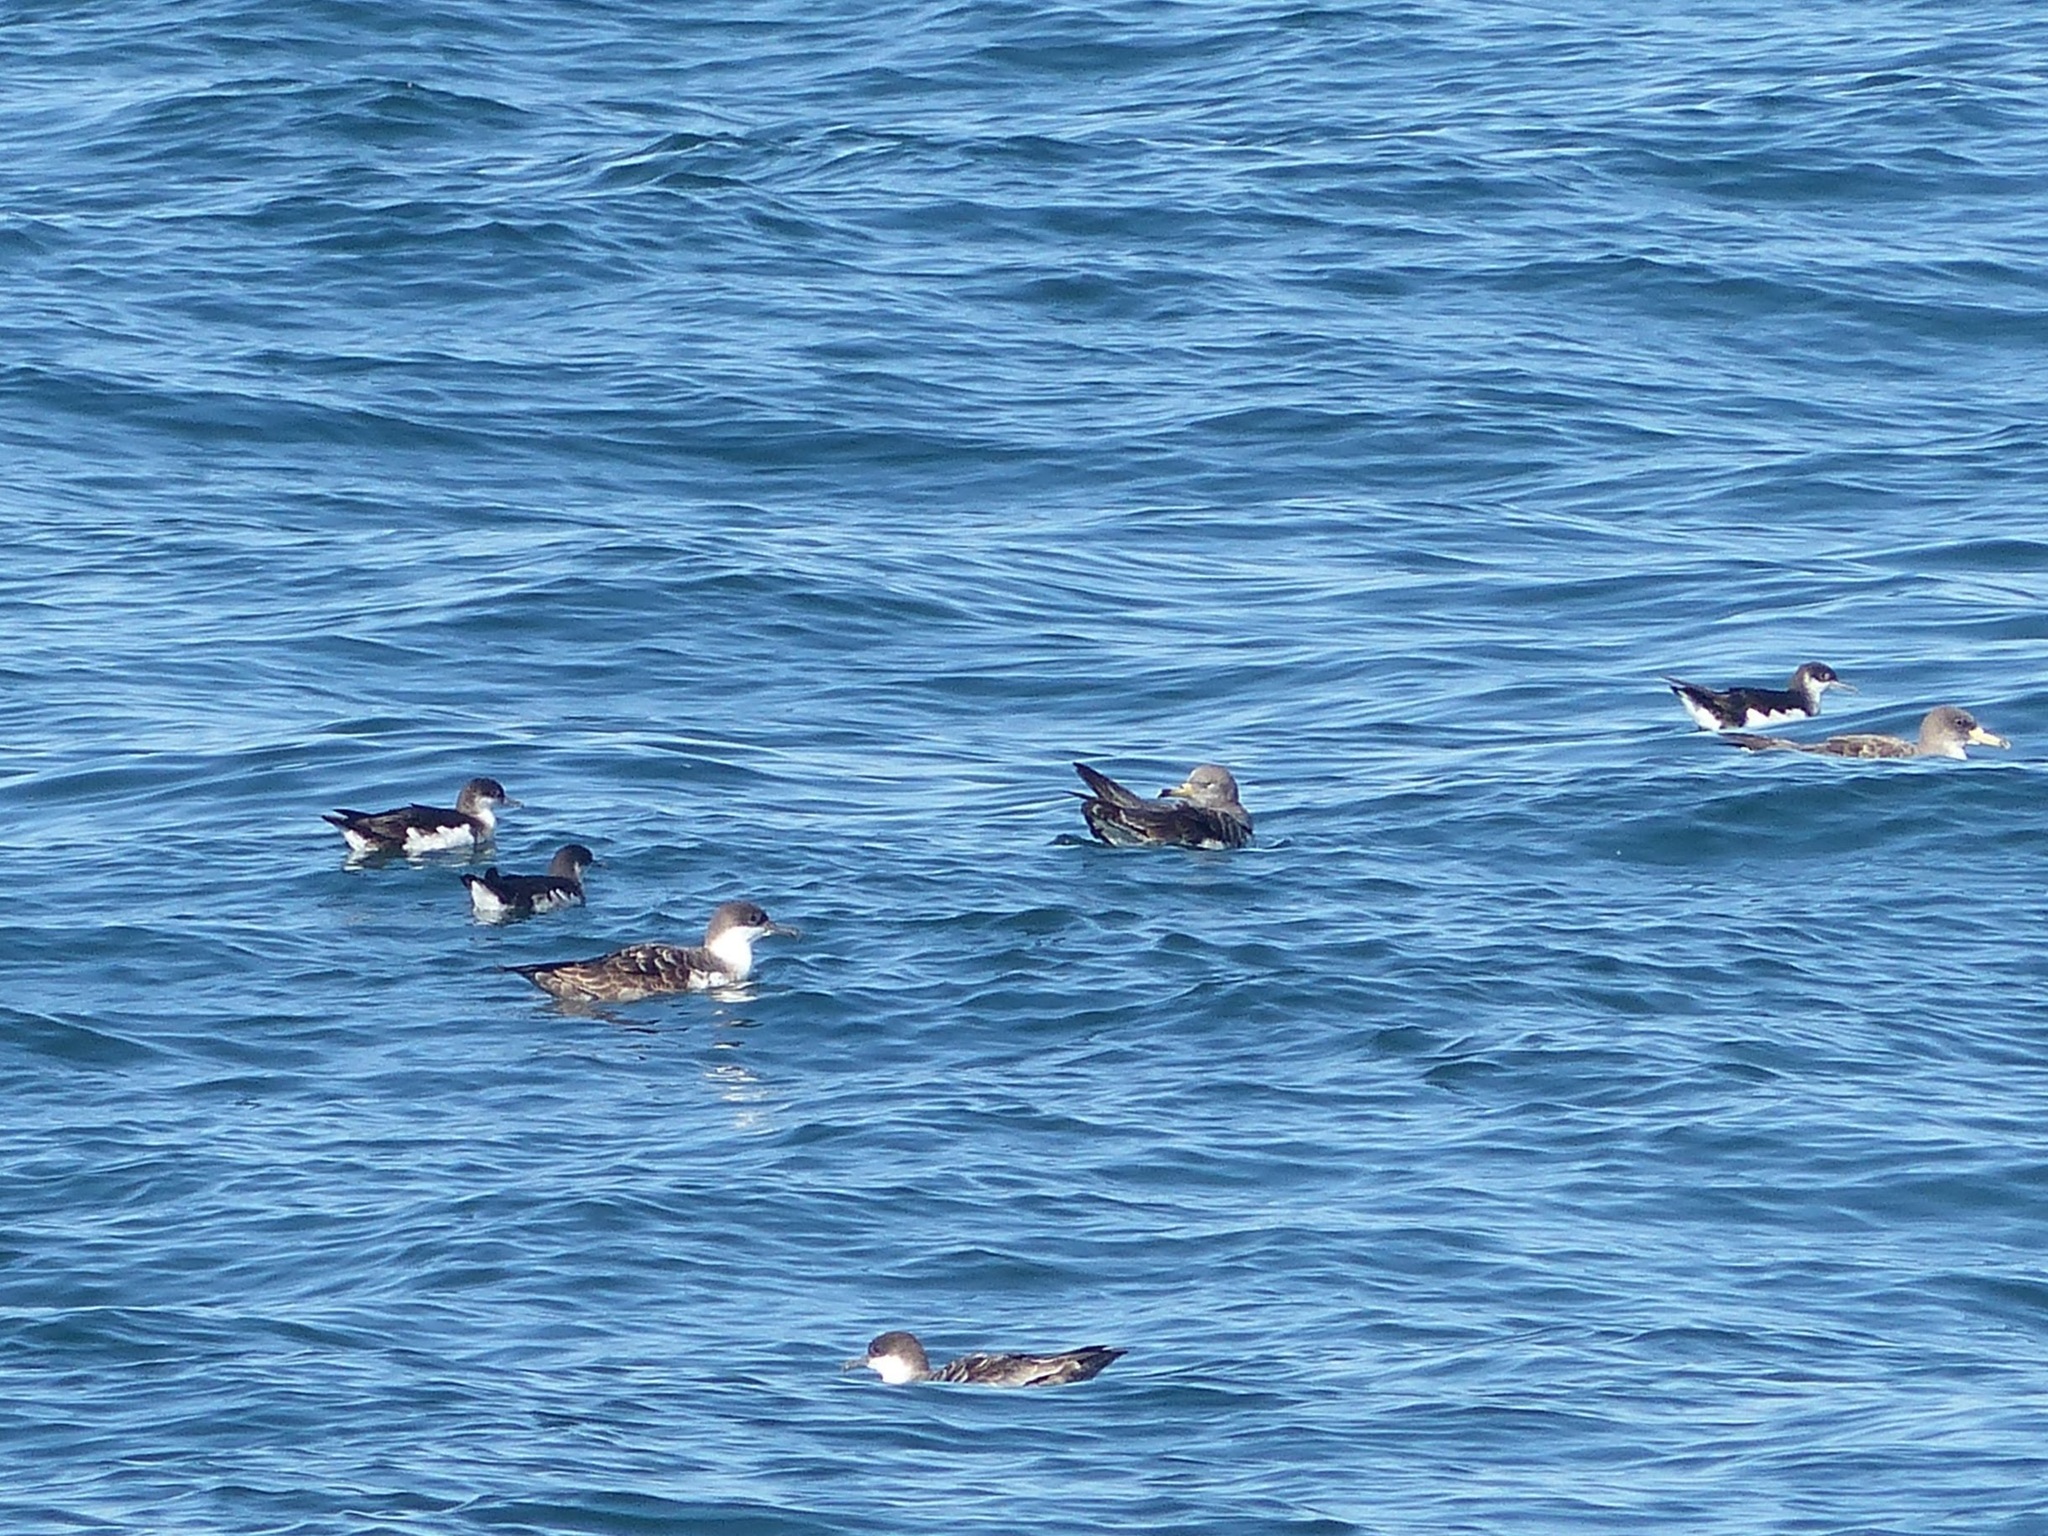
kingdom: Animalia
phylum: Chordata
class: Aves
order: Procellariiformes
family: Procellariidae
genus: Puffinus
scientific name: Puffinus puffinus
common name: Manx shearwater
